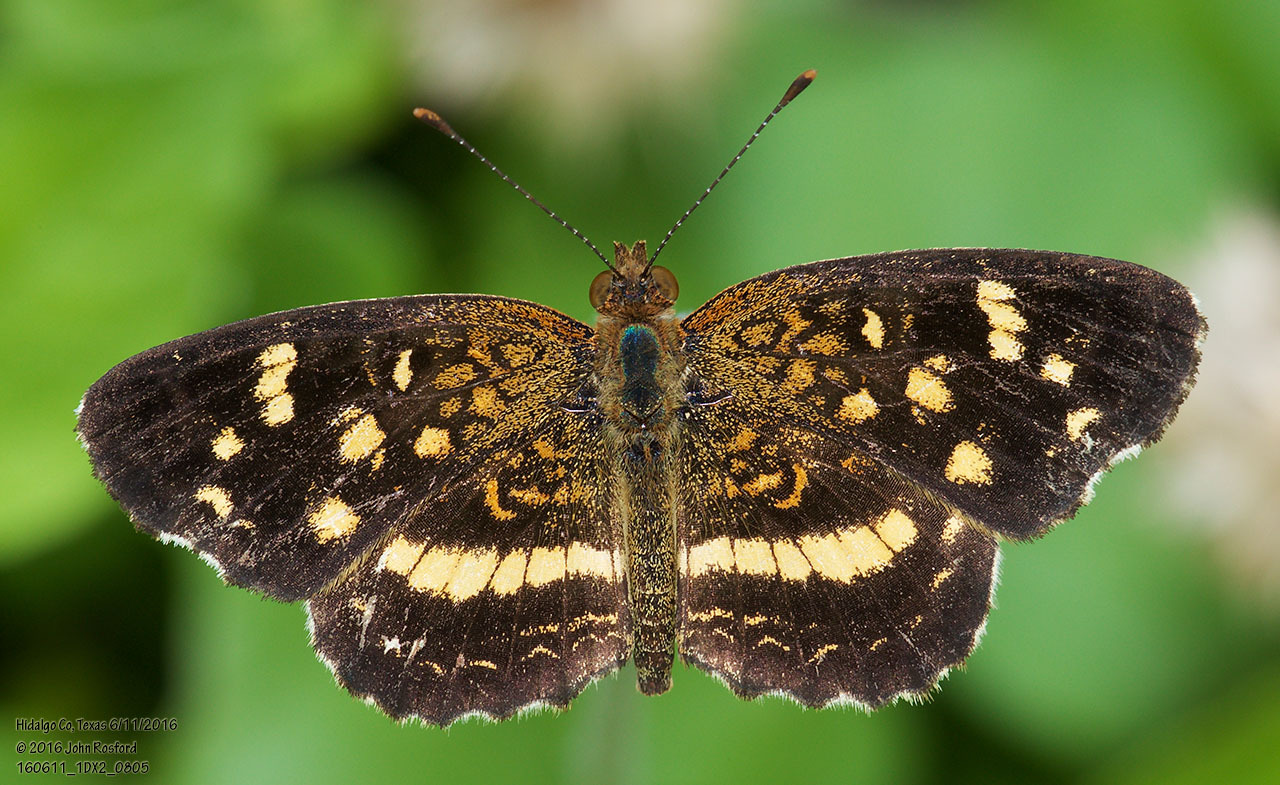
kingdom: Animalia
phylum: Arthropoda
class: Insecta
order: Lepidoptera
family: Nymphalidae
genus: Anthanassa
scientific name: Anthanassa tulcis
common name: Pale-banded crescent
